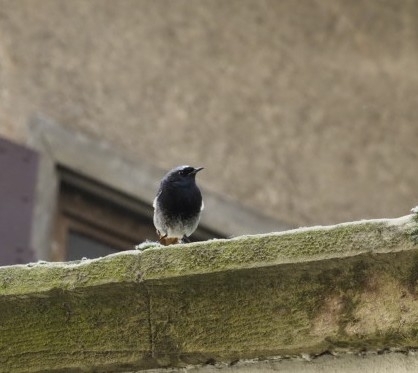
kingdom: Animalia
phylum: Chordata
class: Aves
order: Passeriformes
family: Muscicapidae
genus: Phoenicurus
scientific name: Phoenicurus ochruros
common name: Black redstart
